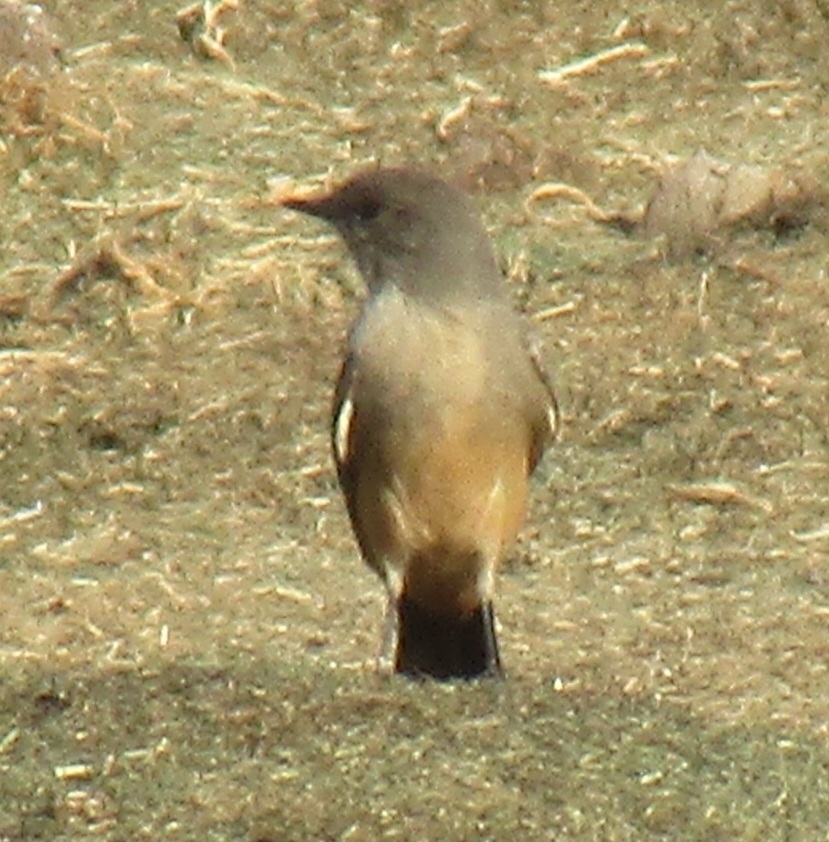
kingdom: Animalia
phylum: Chordata
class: Aves
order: Passeriformes
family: Tyrannidae
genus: Sayornis
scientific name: Sayornis saya
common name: Say's phoebe
